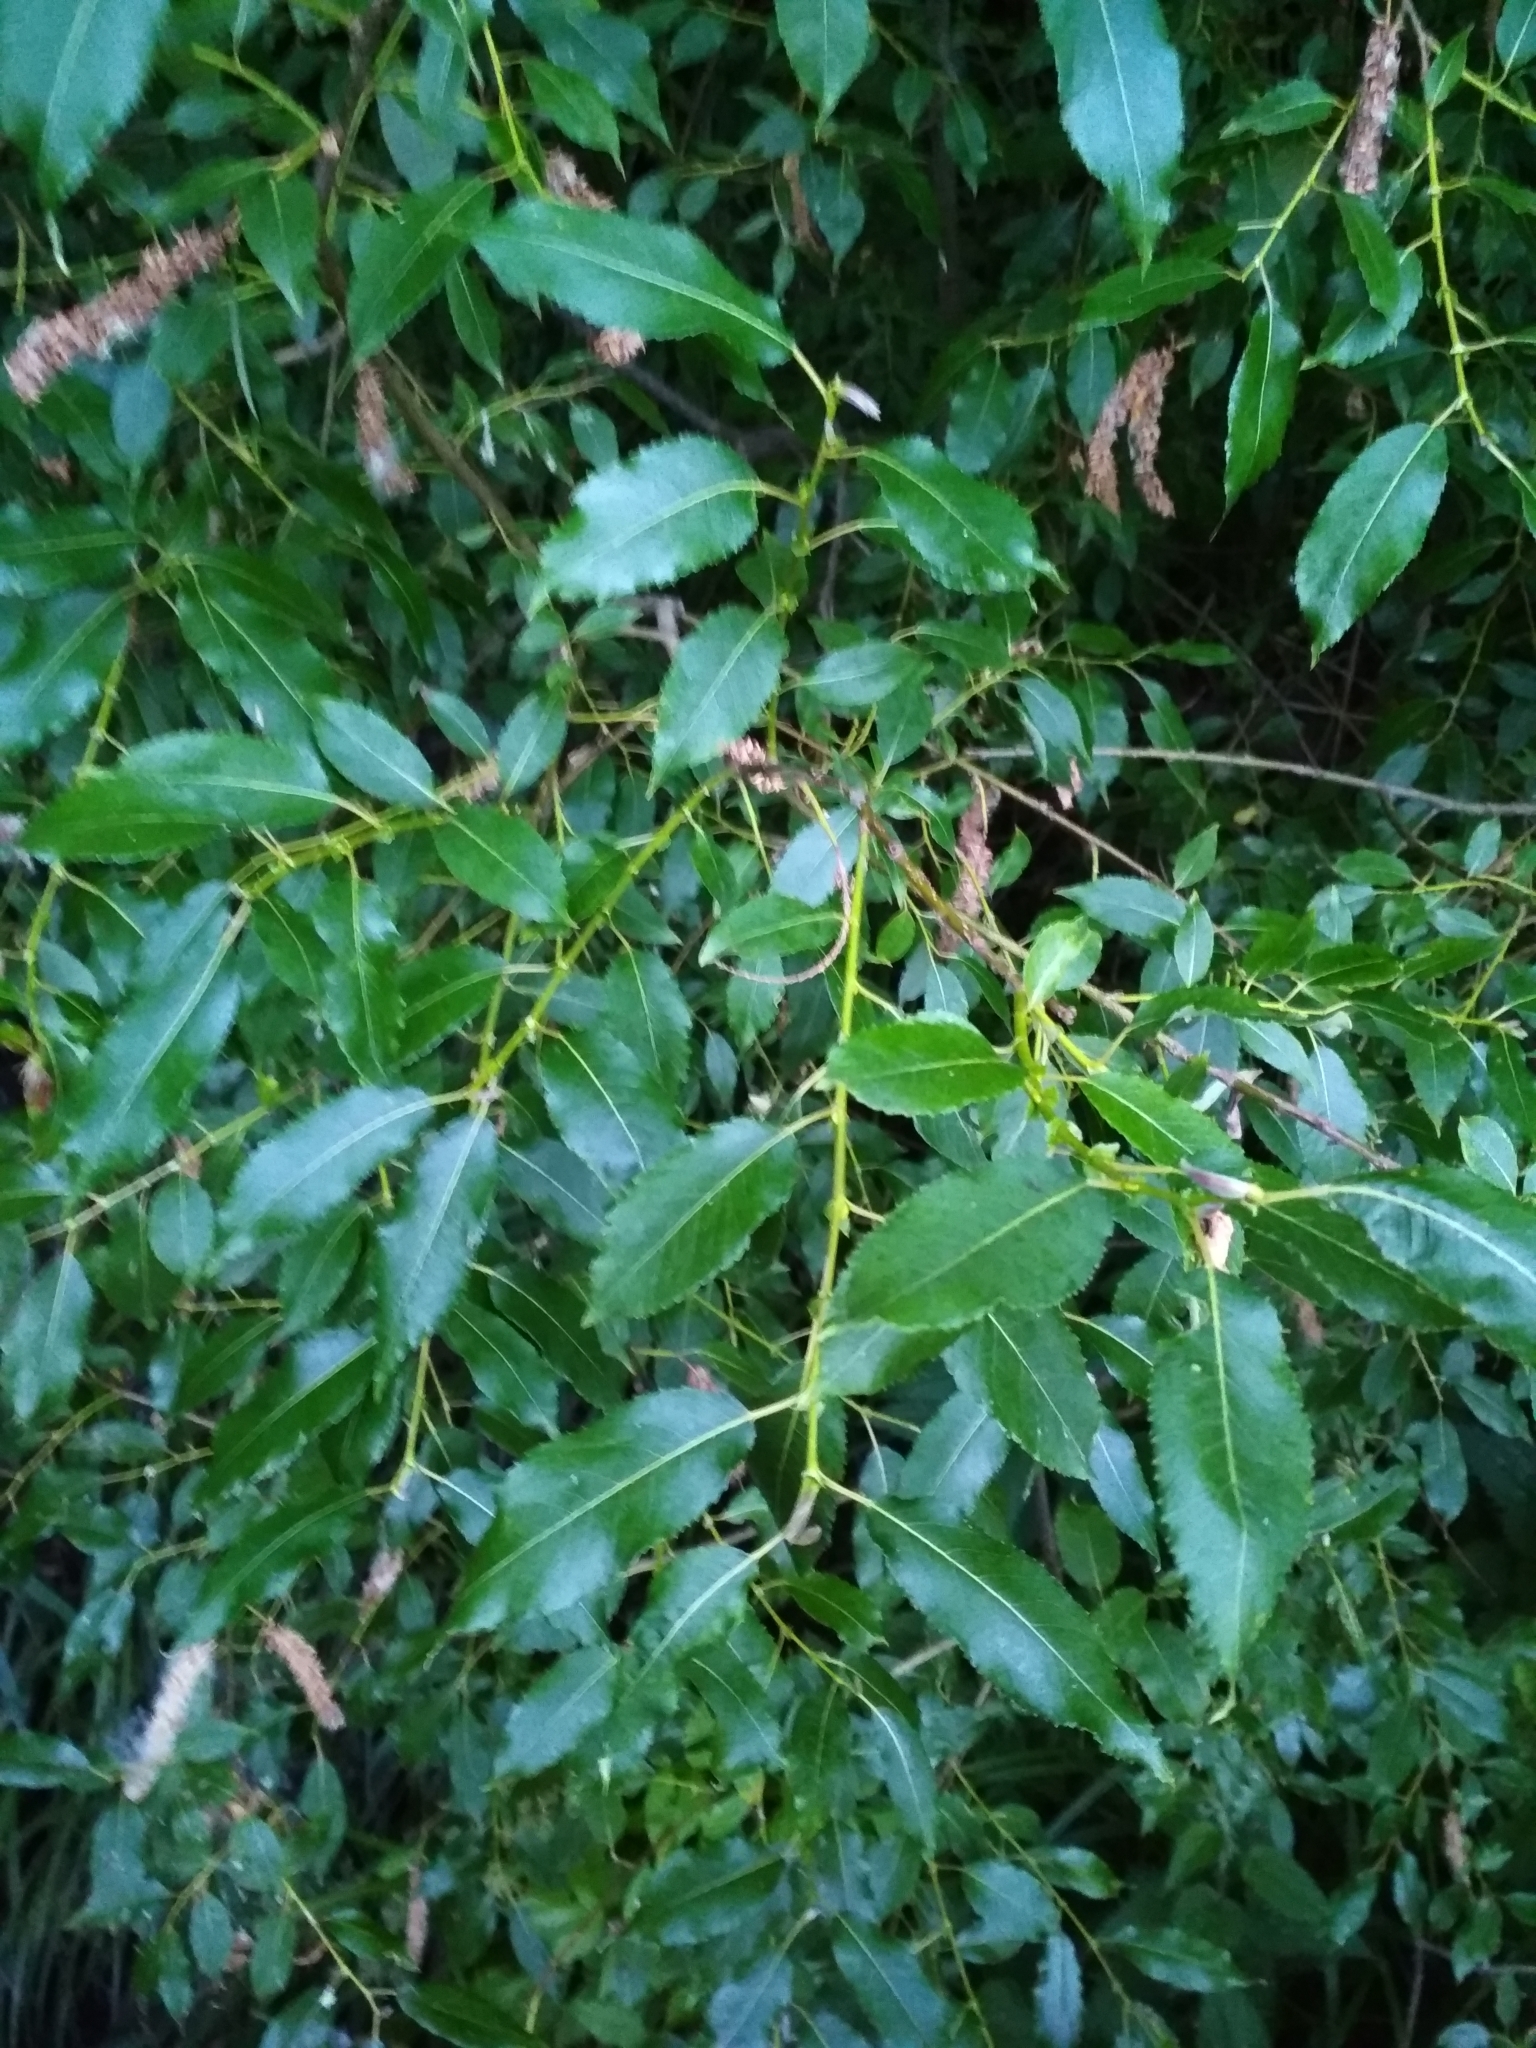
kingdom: Plantae
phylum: Tracheophyta
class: Magnoliopsida
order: Malpighiales
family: Salicaceae
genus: Salix
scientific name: Salix triandra
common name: Almond willow
